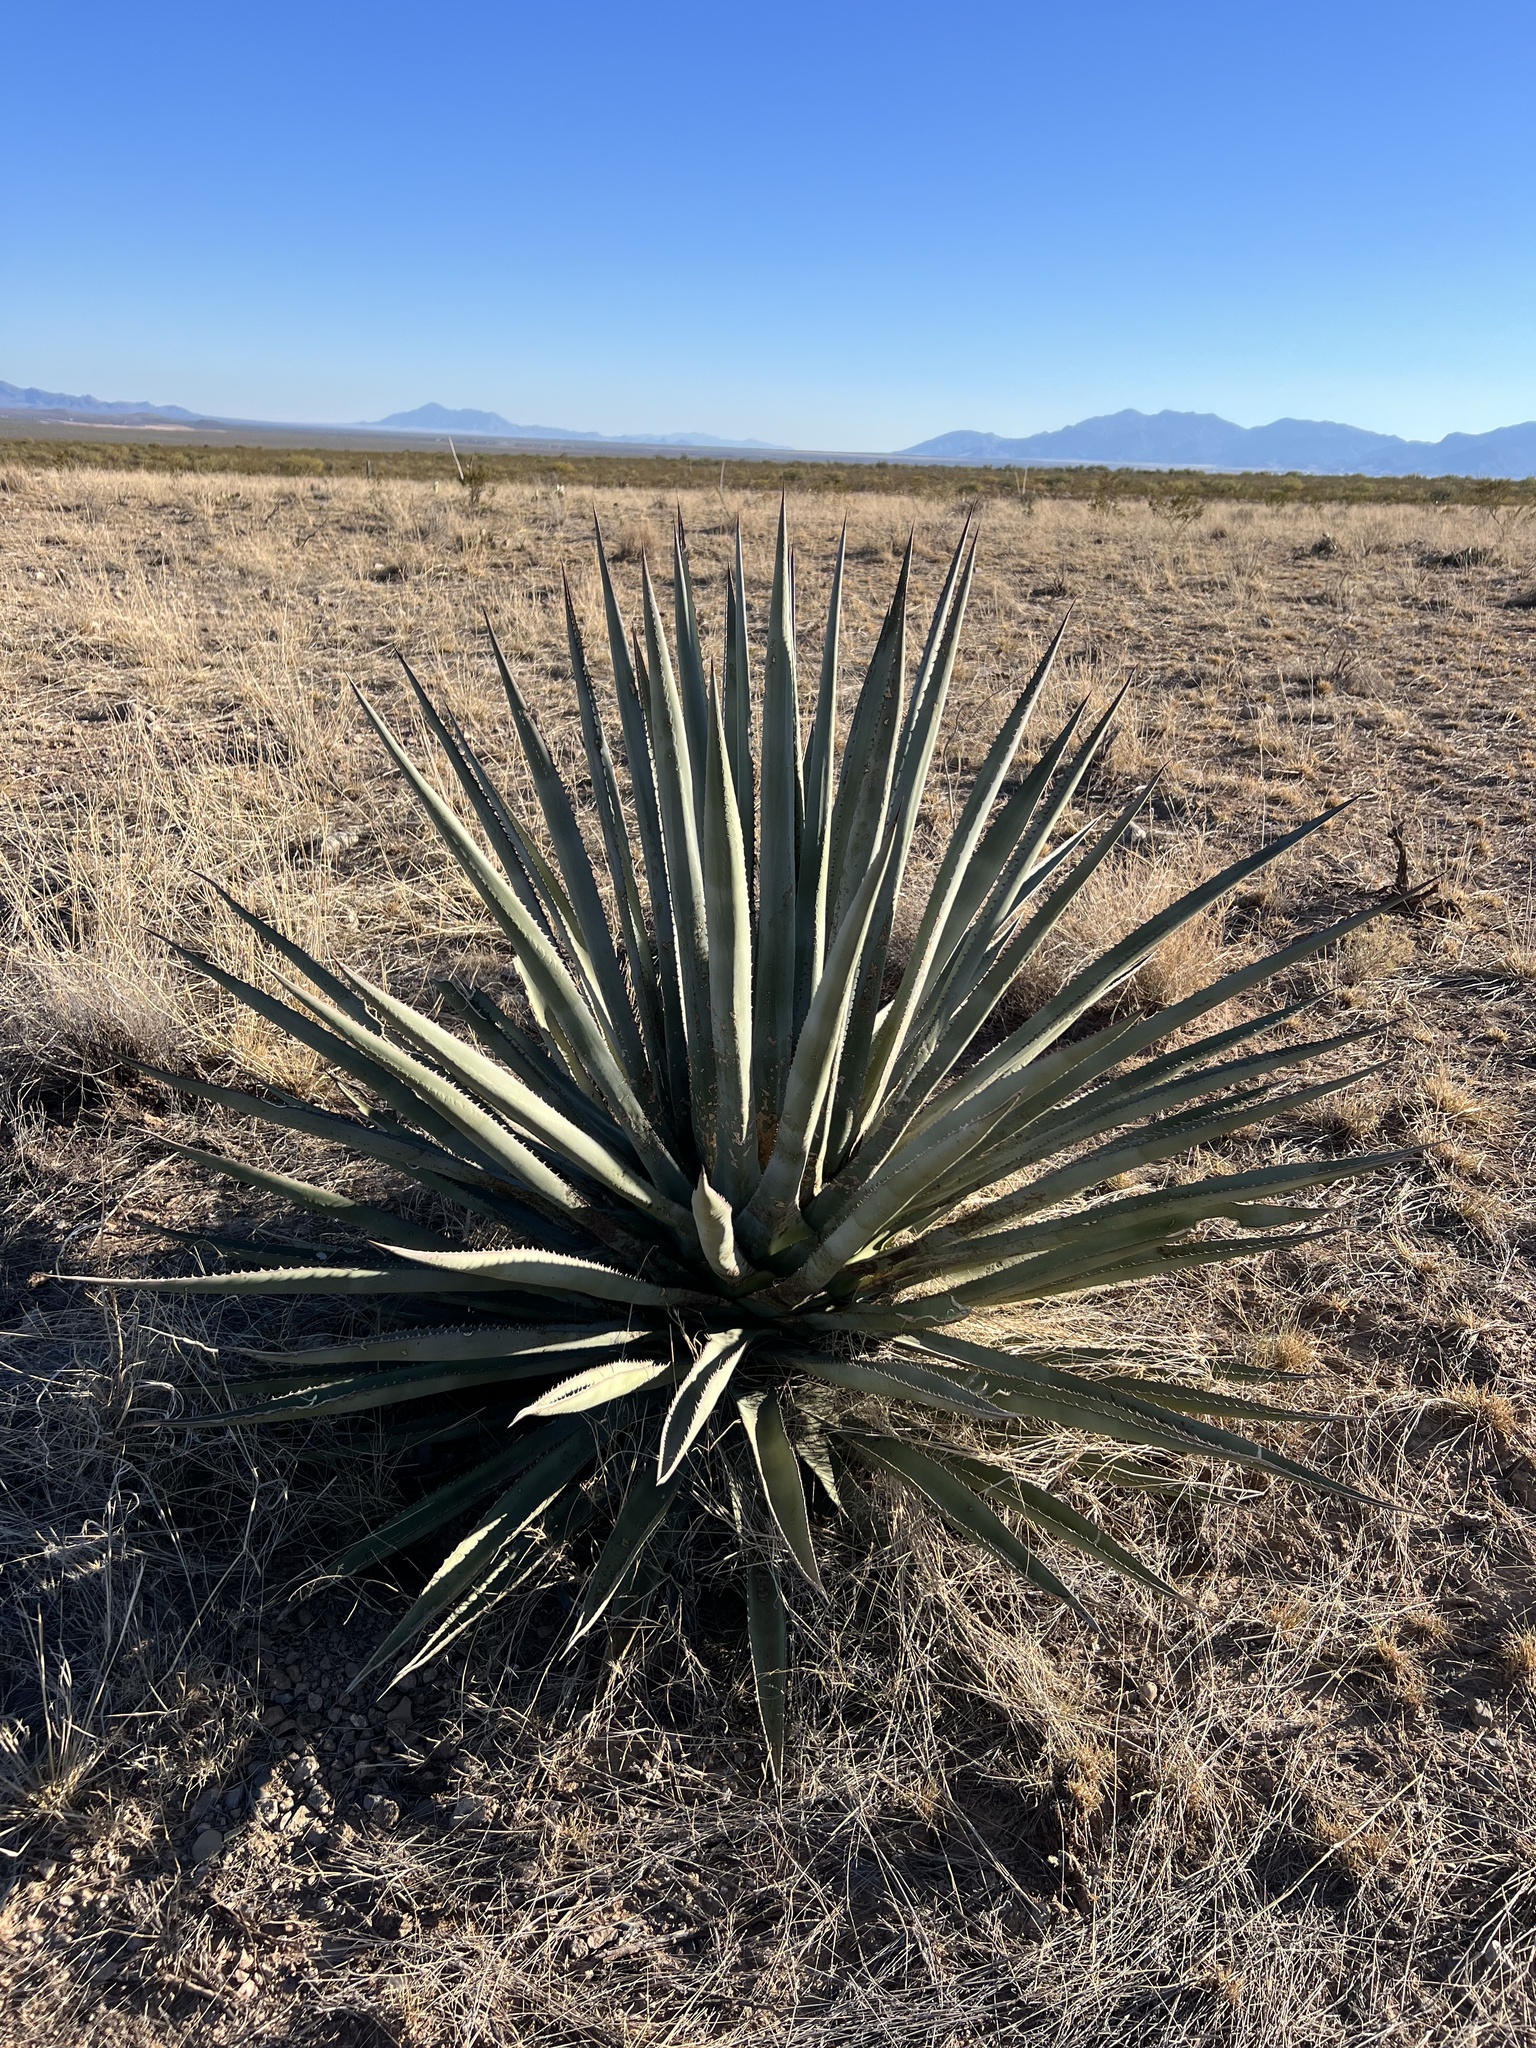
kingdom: Plantae
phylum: Tracheophyta
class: Liliopsida
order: Asparagales
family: Asparagaceae
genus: Agave
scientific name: Agave palmeri
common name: Palmer agave
